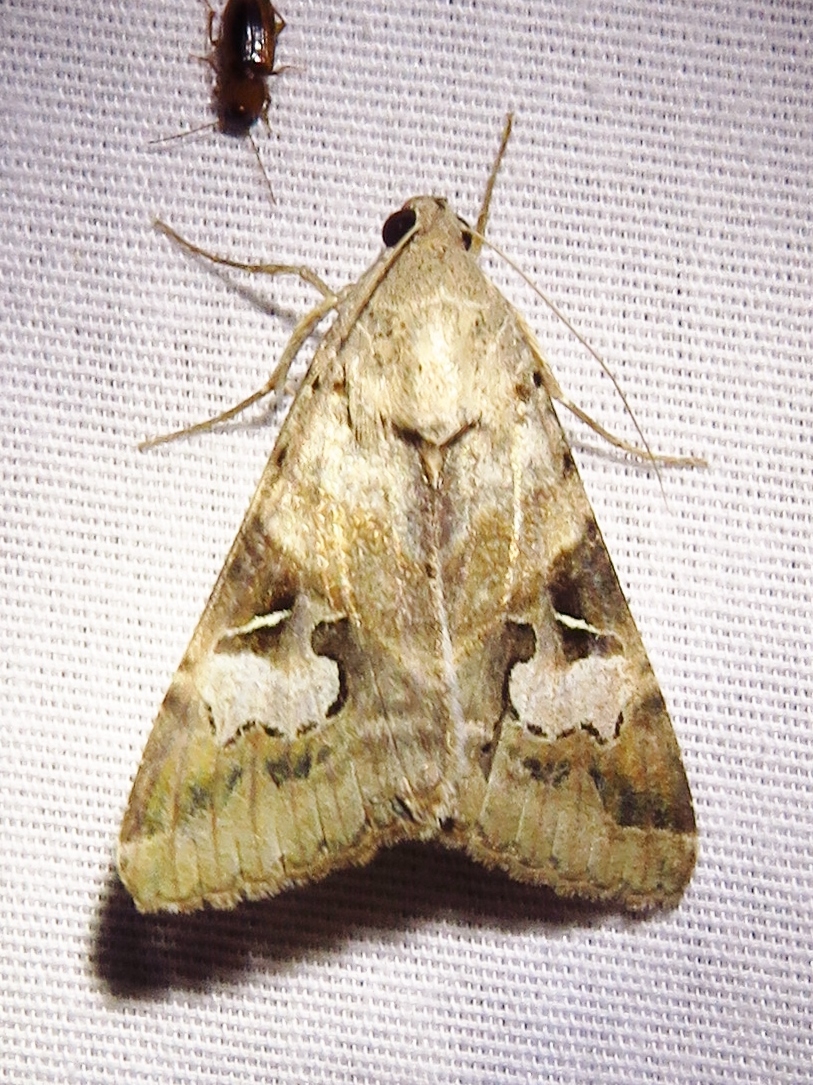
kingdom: Animalia
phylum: Arthropoda
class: Insecta
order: Lepidoptera
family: Erebidae
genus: Melipotis
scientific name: Melipotis indomita
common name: Moth
